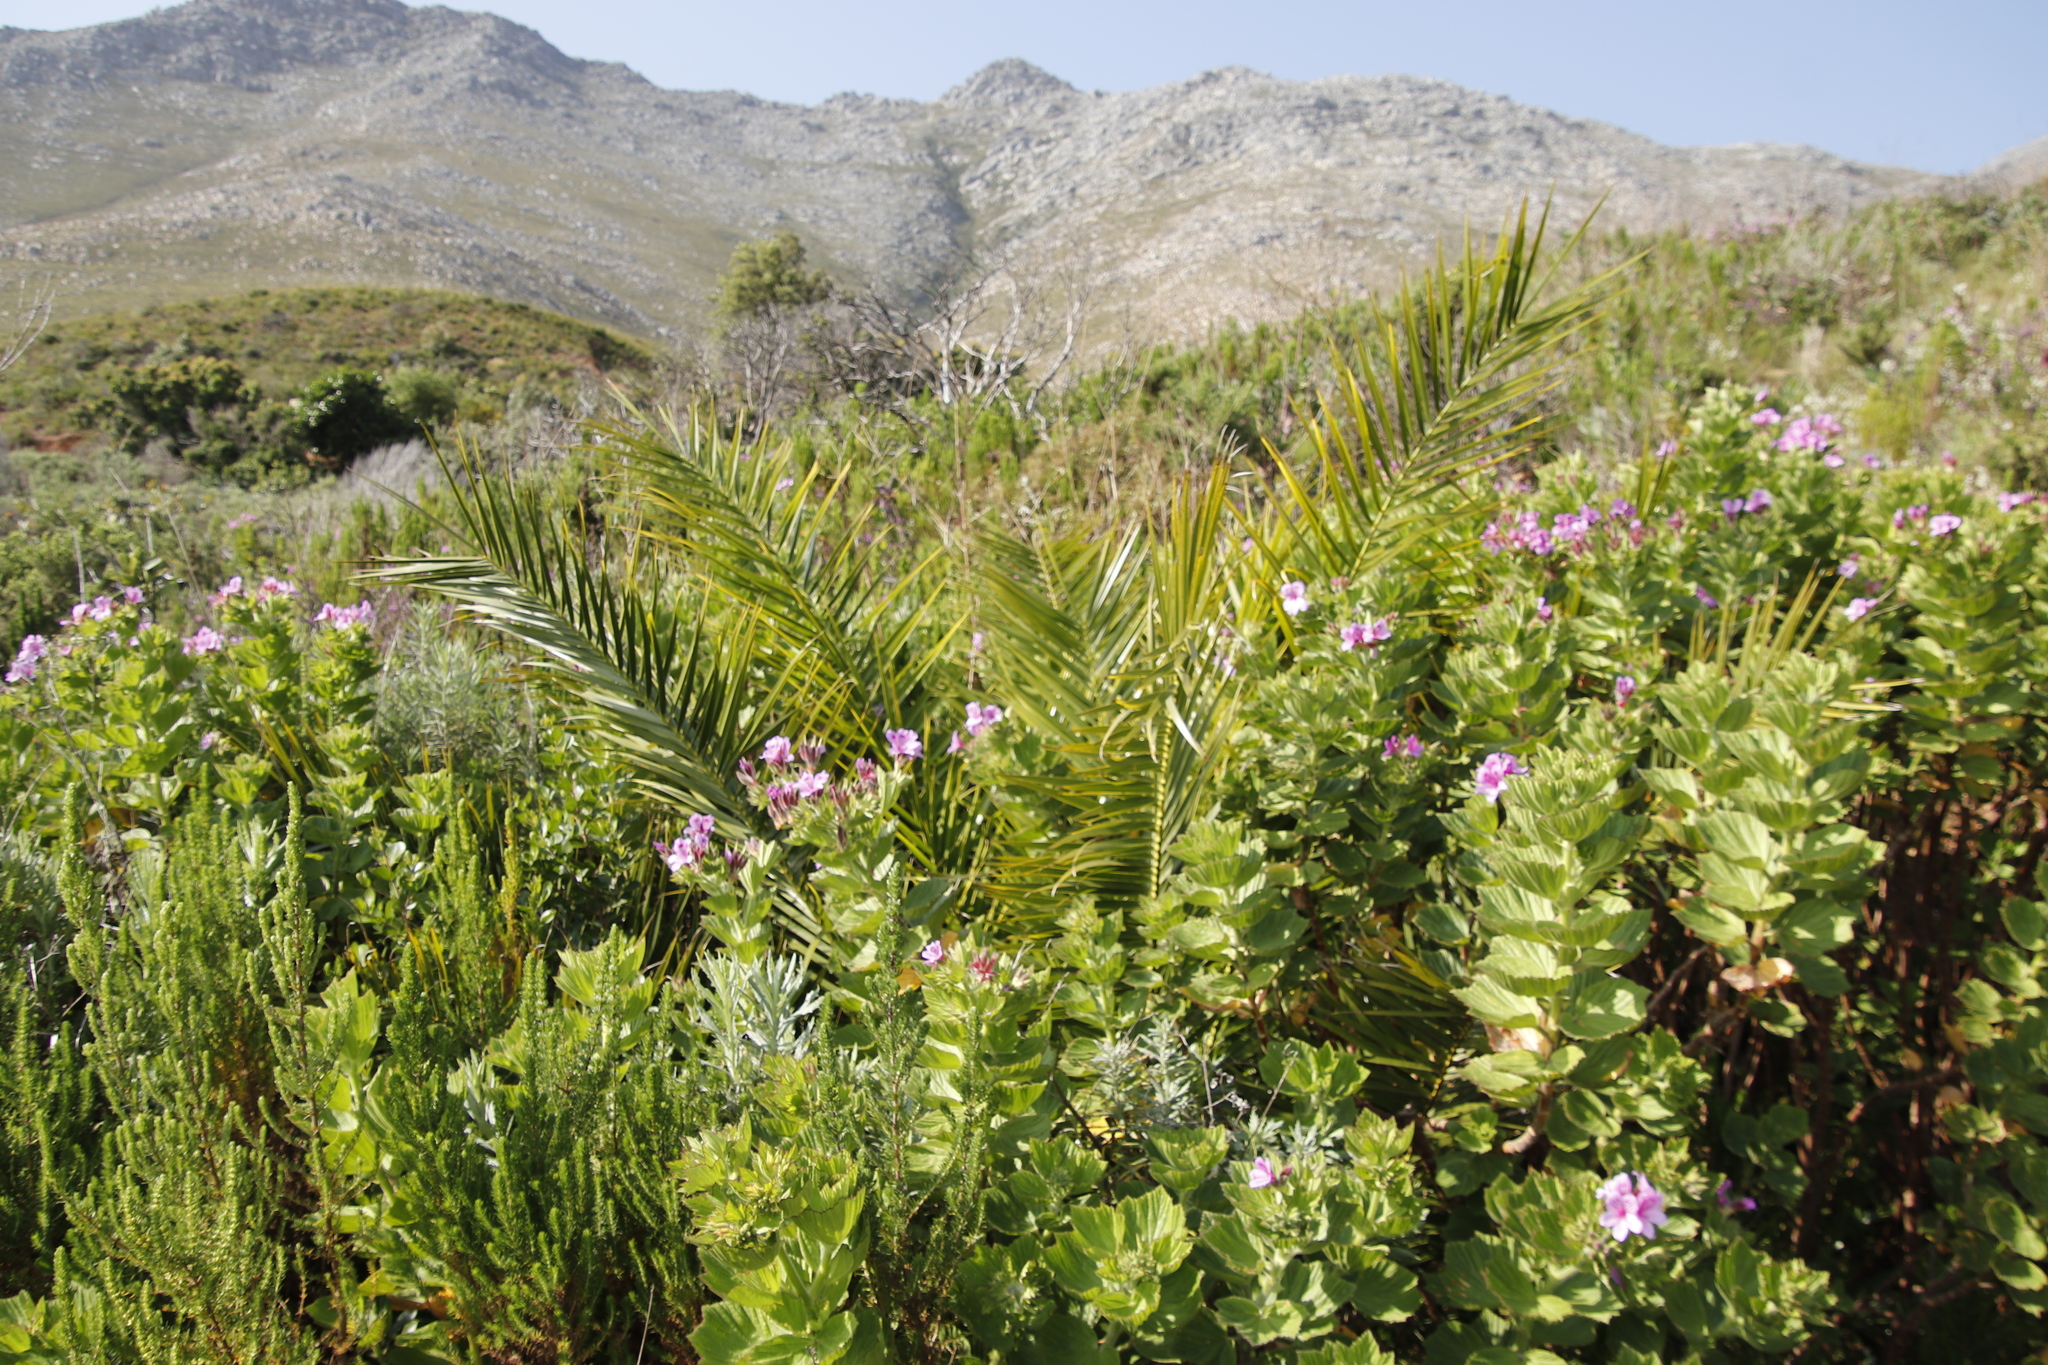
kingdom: Plantae
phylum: Tracheophyta
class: Liliopsida
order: Arecales
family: Arecaceae
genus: Phoenix
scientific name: Phoenix canariensis
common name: Canary island date palm
